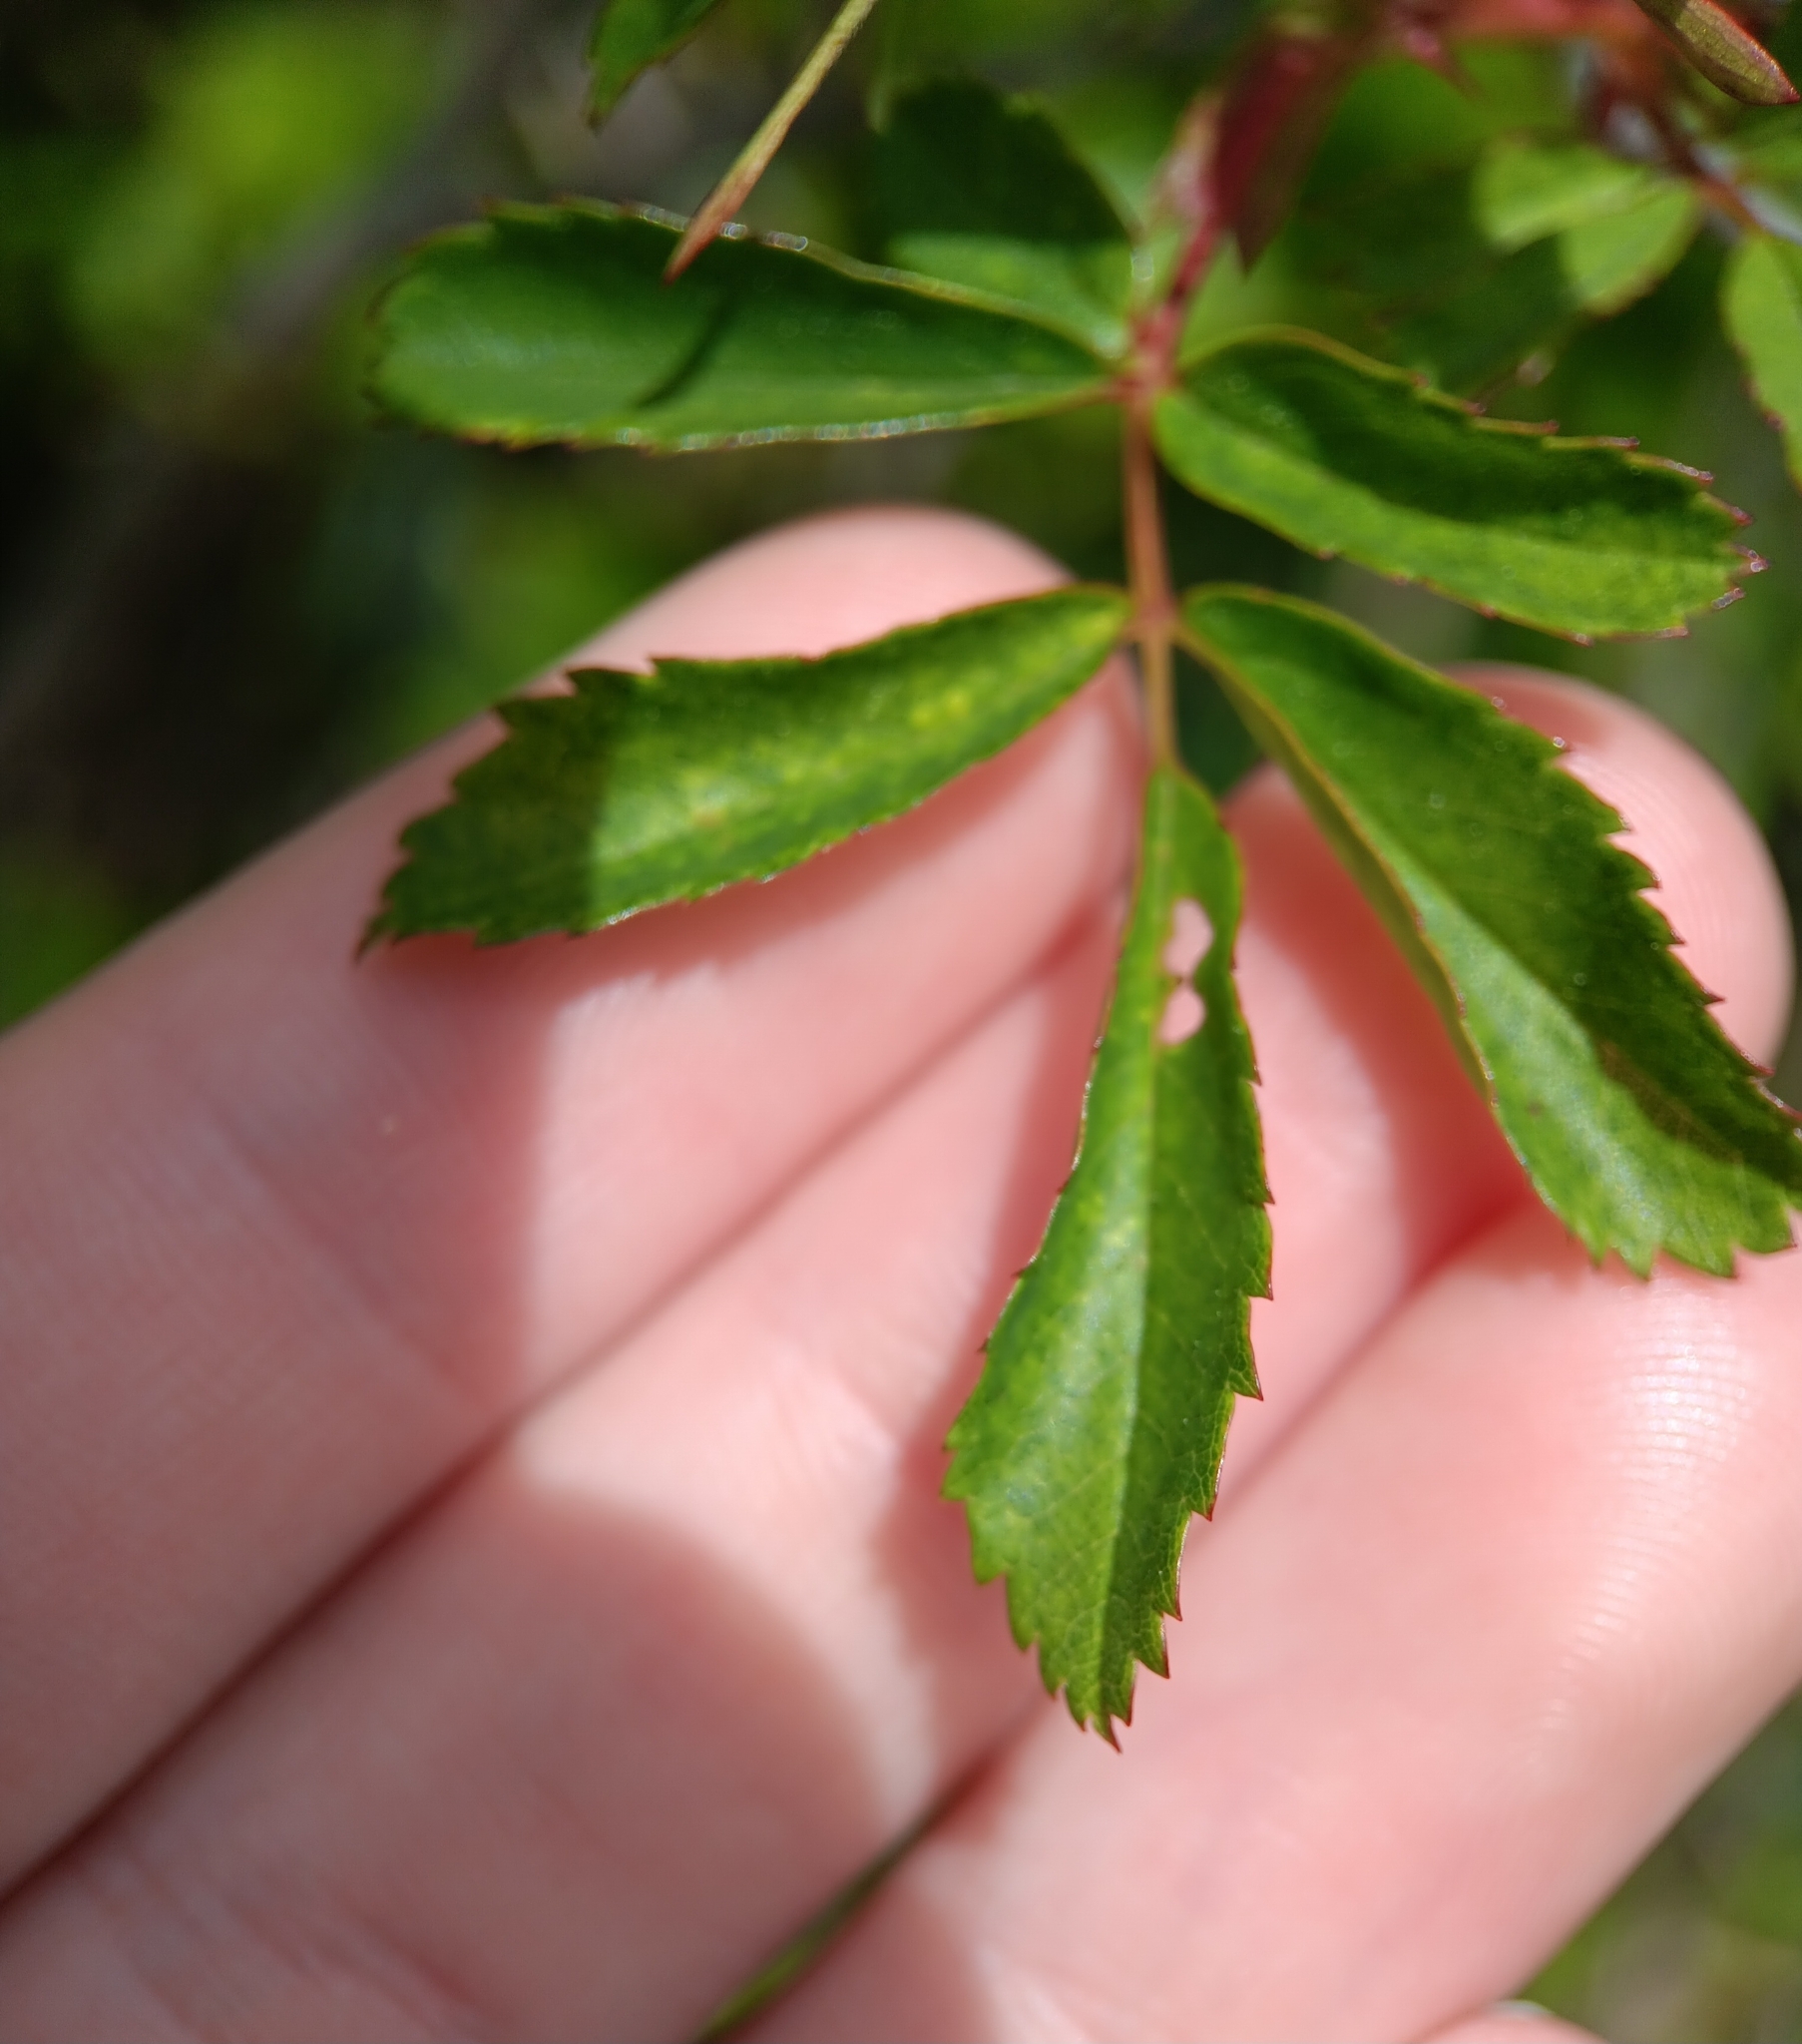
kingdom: Plantae
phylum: Tracheophyta
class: Magnoliopsida
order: Rosales
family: Rosaceae
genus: Rosa
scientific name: Rosa carolina
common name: Pasture rose
